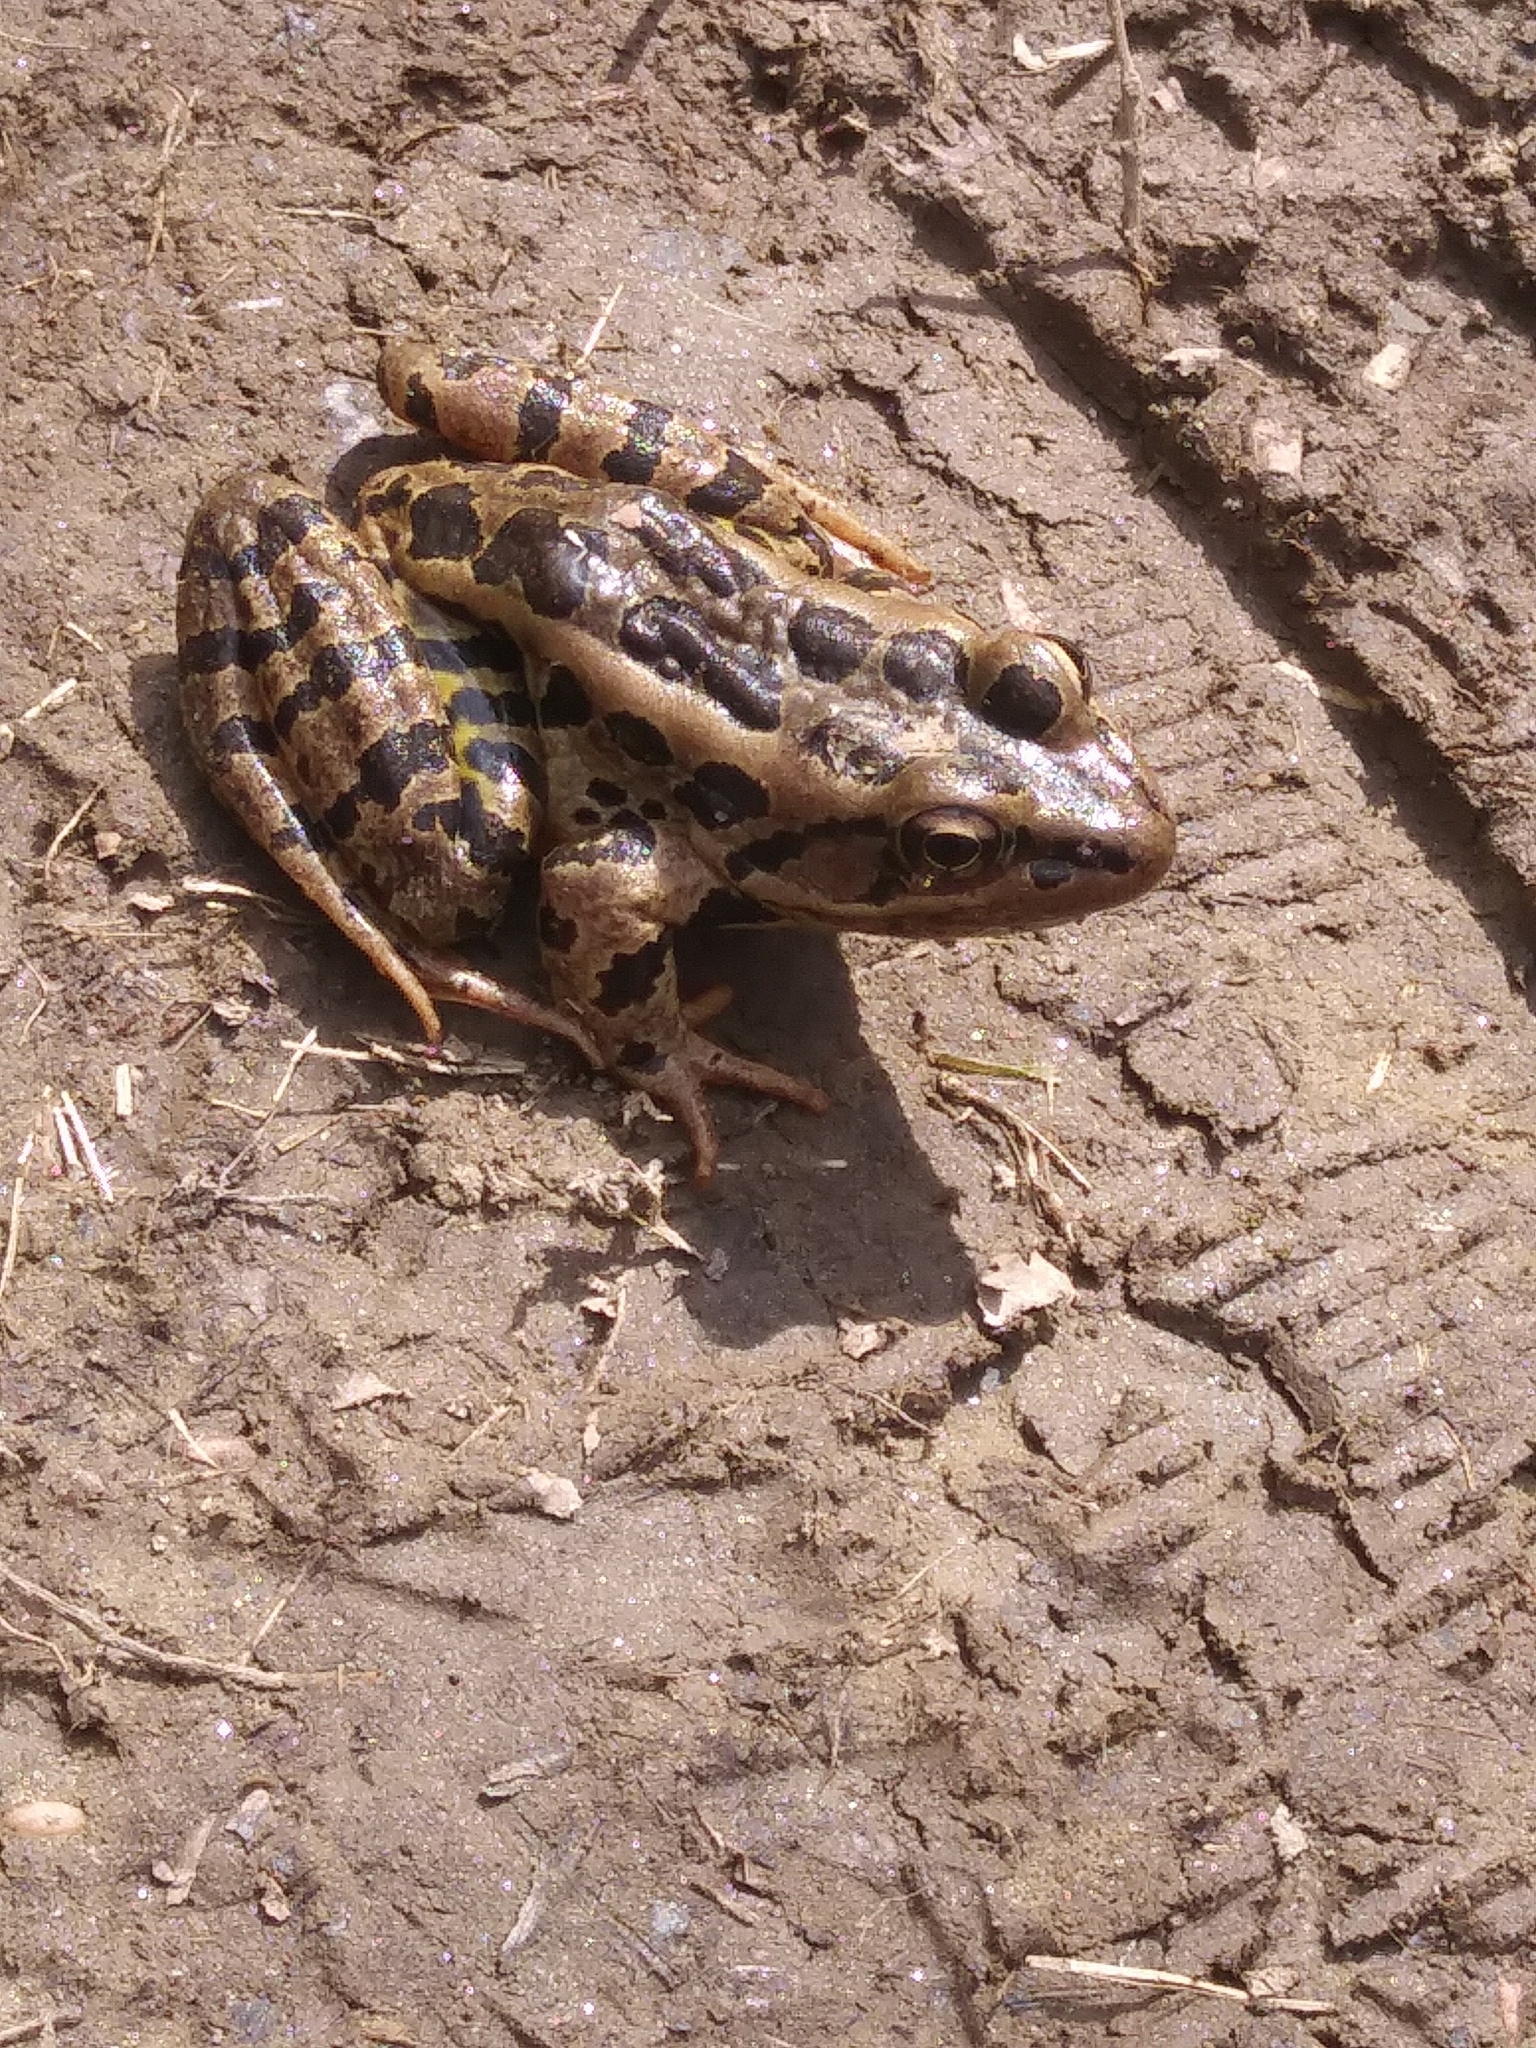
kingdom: Animalia
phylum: Chordata
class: Amphibia
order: Anura
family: Ranidae
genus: Lithobates
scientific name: Lithobates palustris
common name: Pickerel frog
